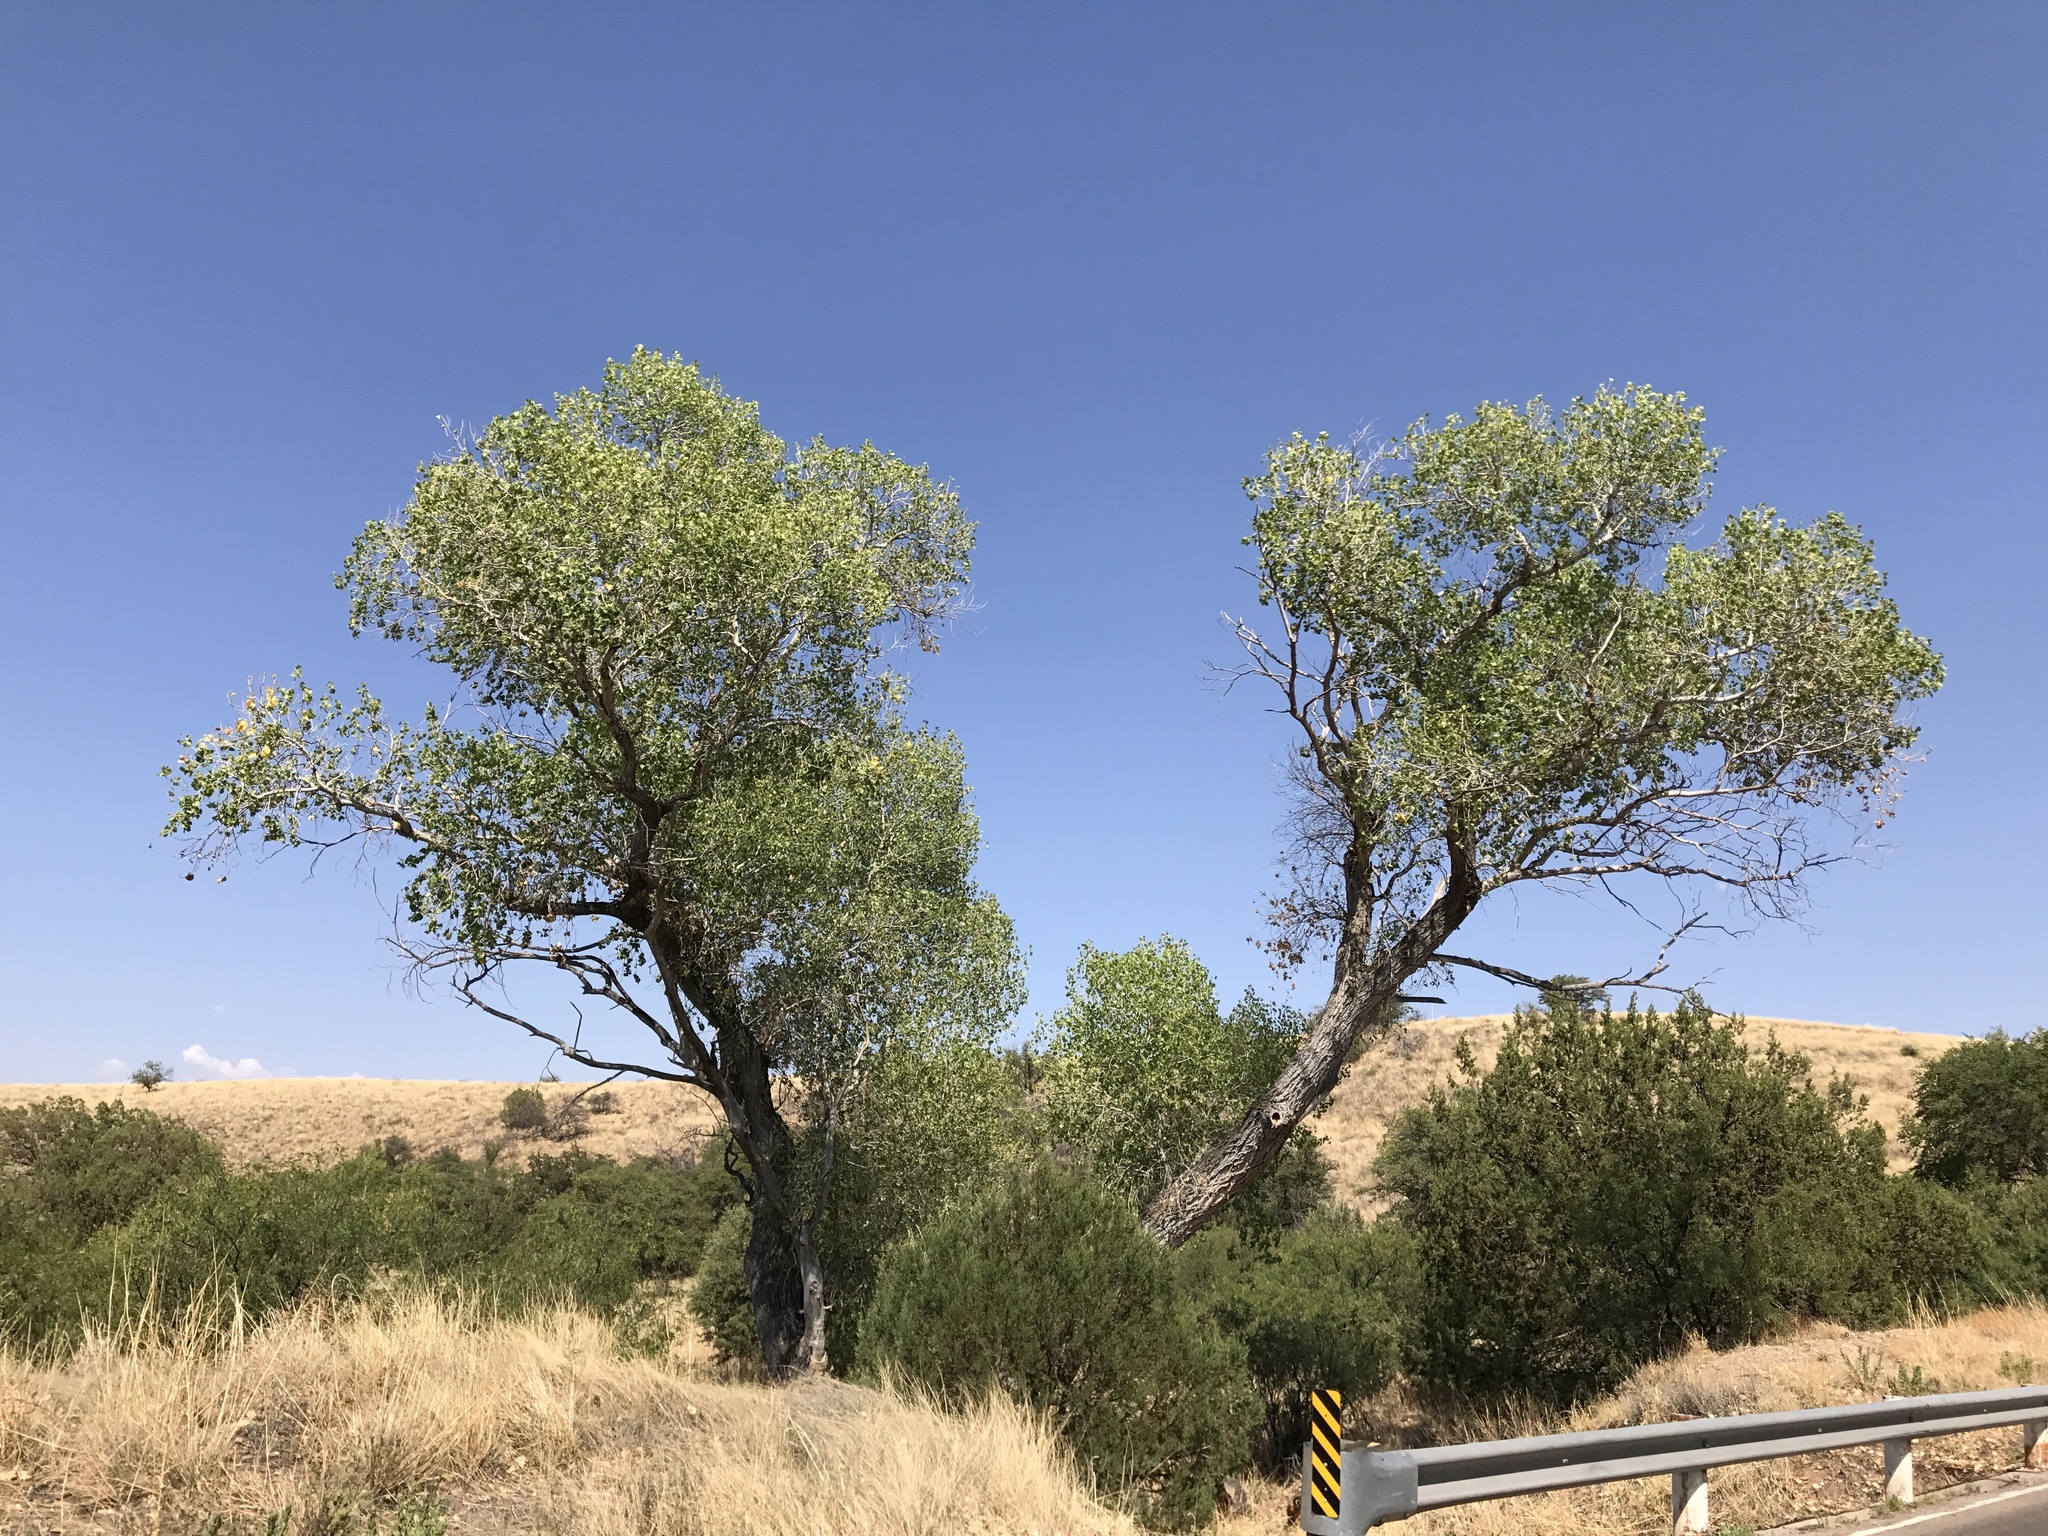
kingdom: Plantae
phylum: Tracheophyta
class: Magnoliopsida
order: Malpighiales
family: Salicaceae
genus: Populus
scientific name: Populus fremontii
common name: Fremont's cottonwood
